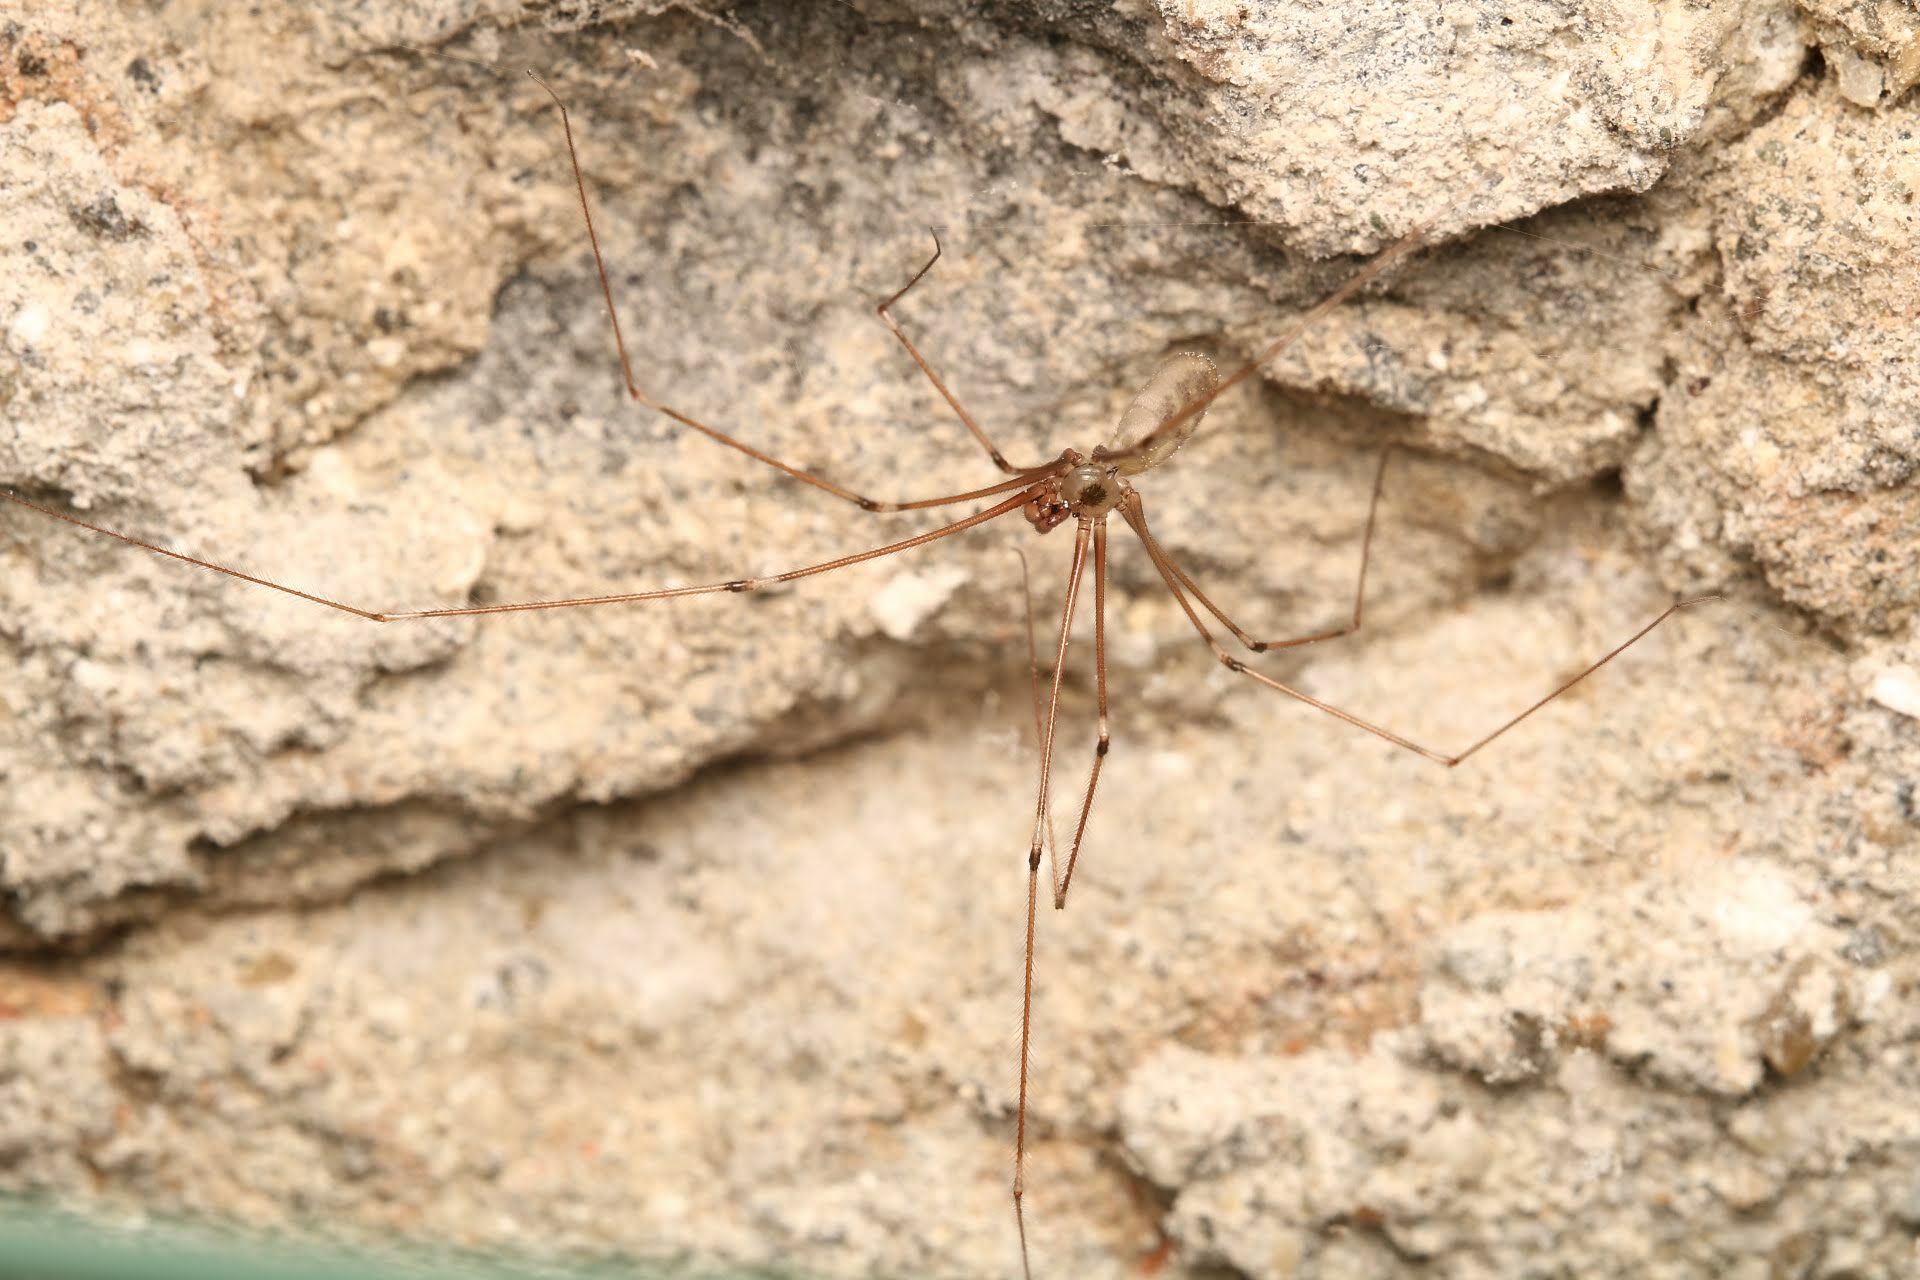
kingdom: Animalia
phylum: Arthropoda
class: Arachnida
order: Araneae
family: Pholcidae
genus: Pholcus
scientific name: Pholcus phalangioides
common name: Longbodied cellar spider
